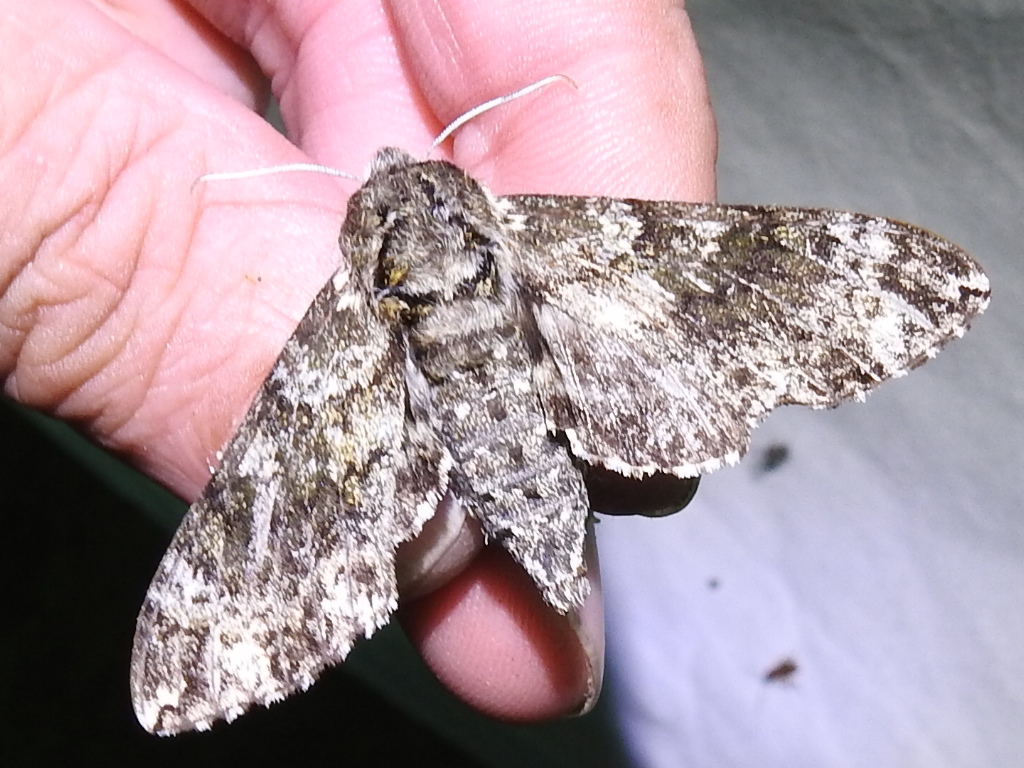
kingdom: Animalia
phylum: Arthropoda
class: Insecta
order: Lepidoptera
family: Sphingidae
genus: Dolba
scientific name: Dolba hyloeus
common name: Pawpaw sphinx
